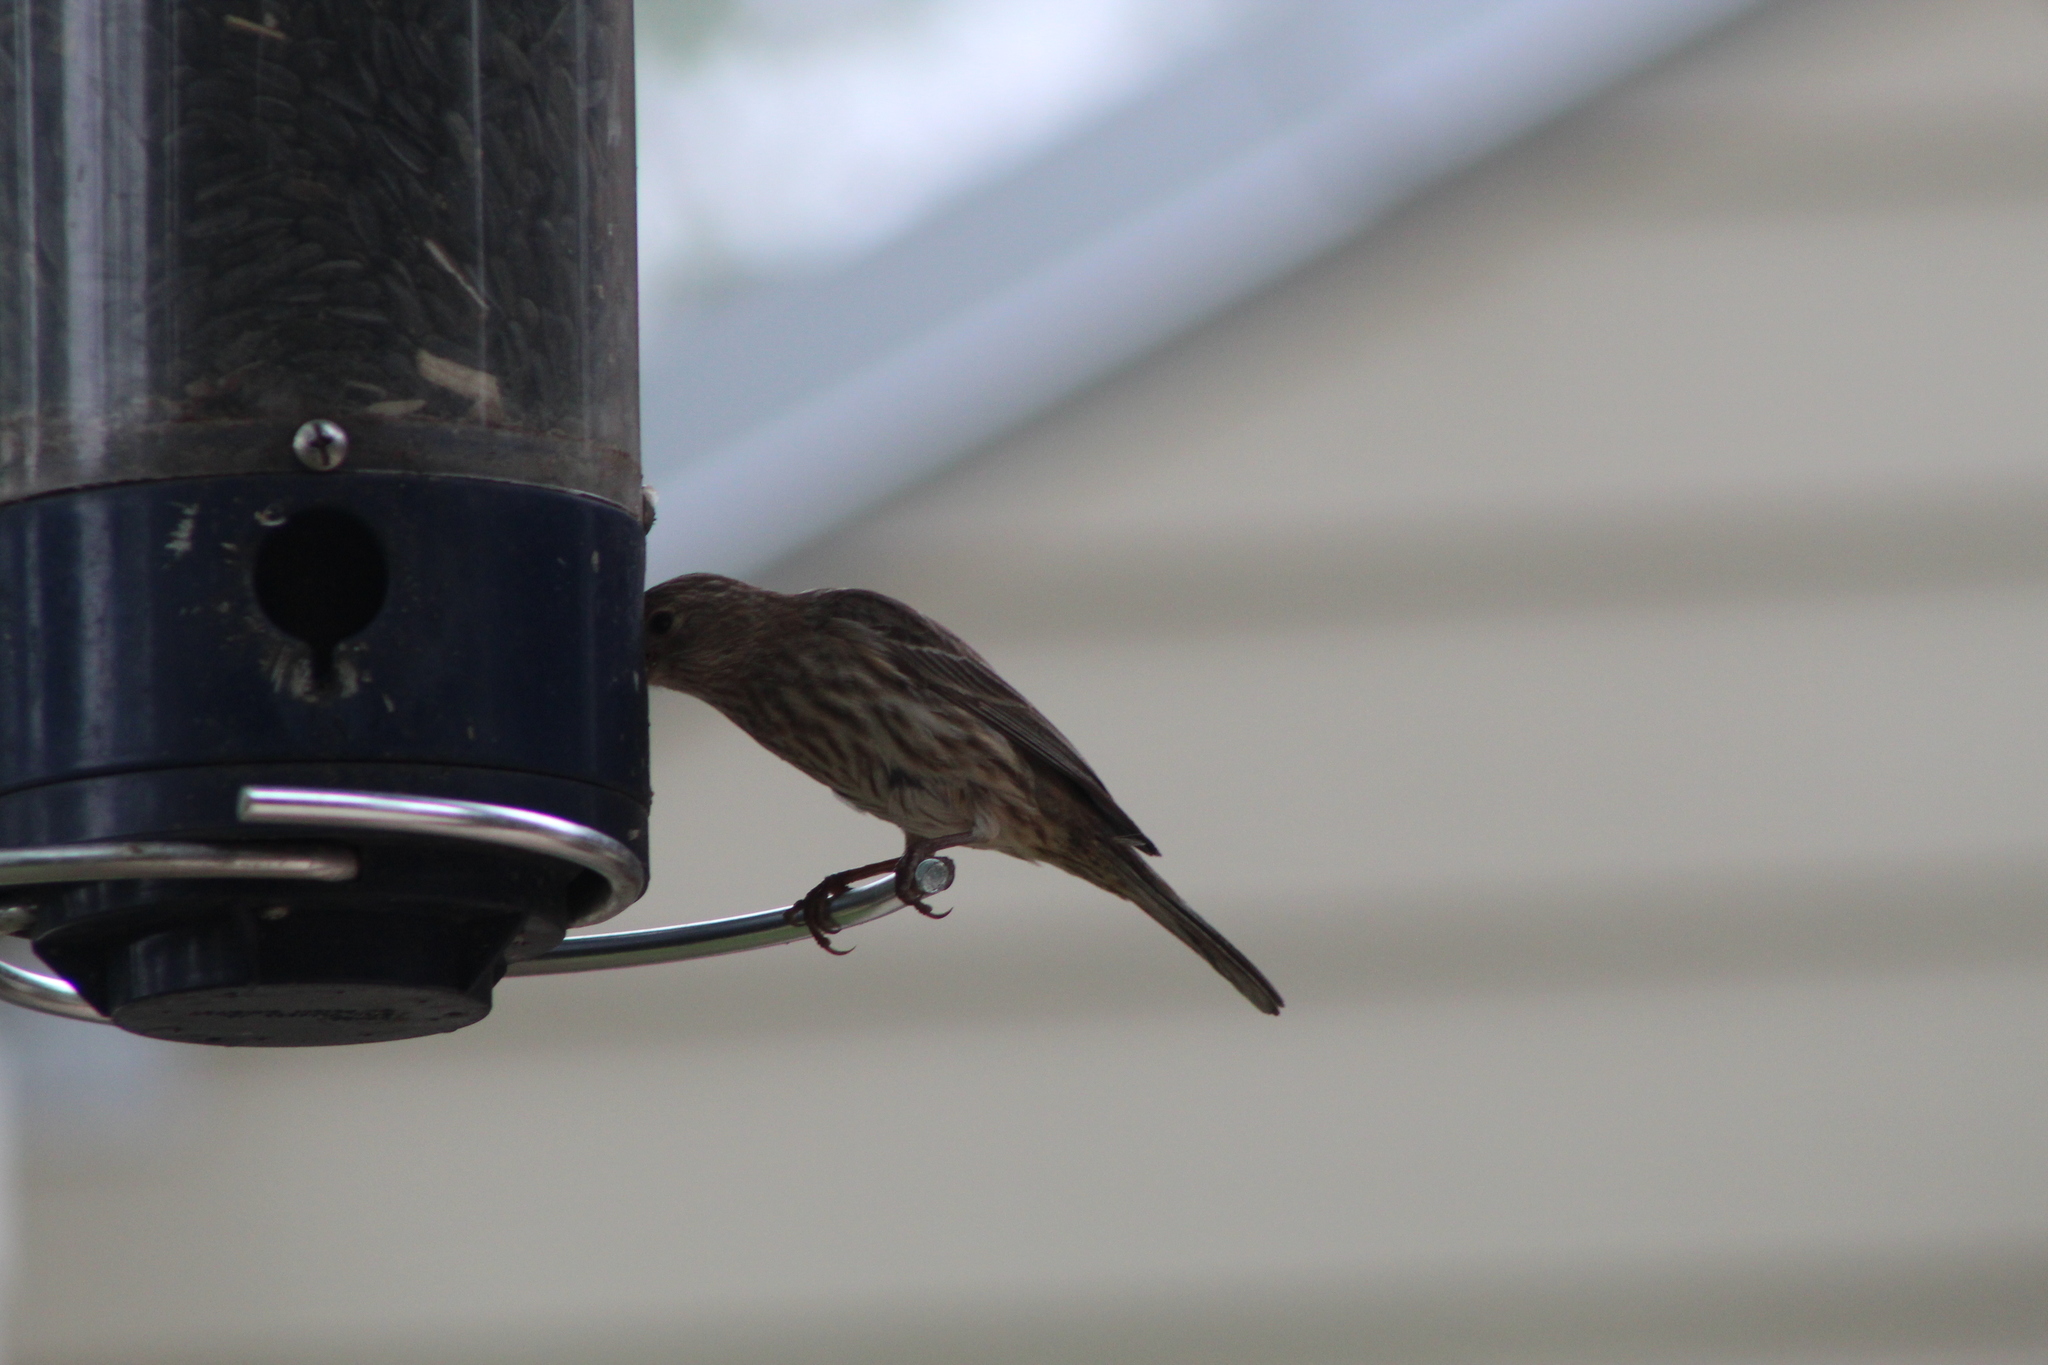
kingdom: Animalia
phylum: Chordata
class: Aves
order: Passeriformes
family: Fringillidae
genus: Haemorhous
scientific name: Haemorhous mexicanus
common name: House finch
